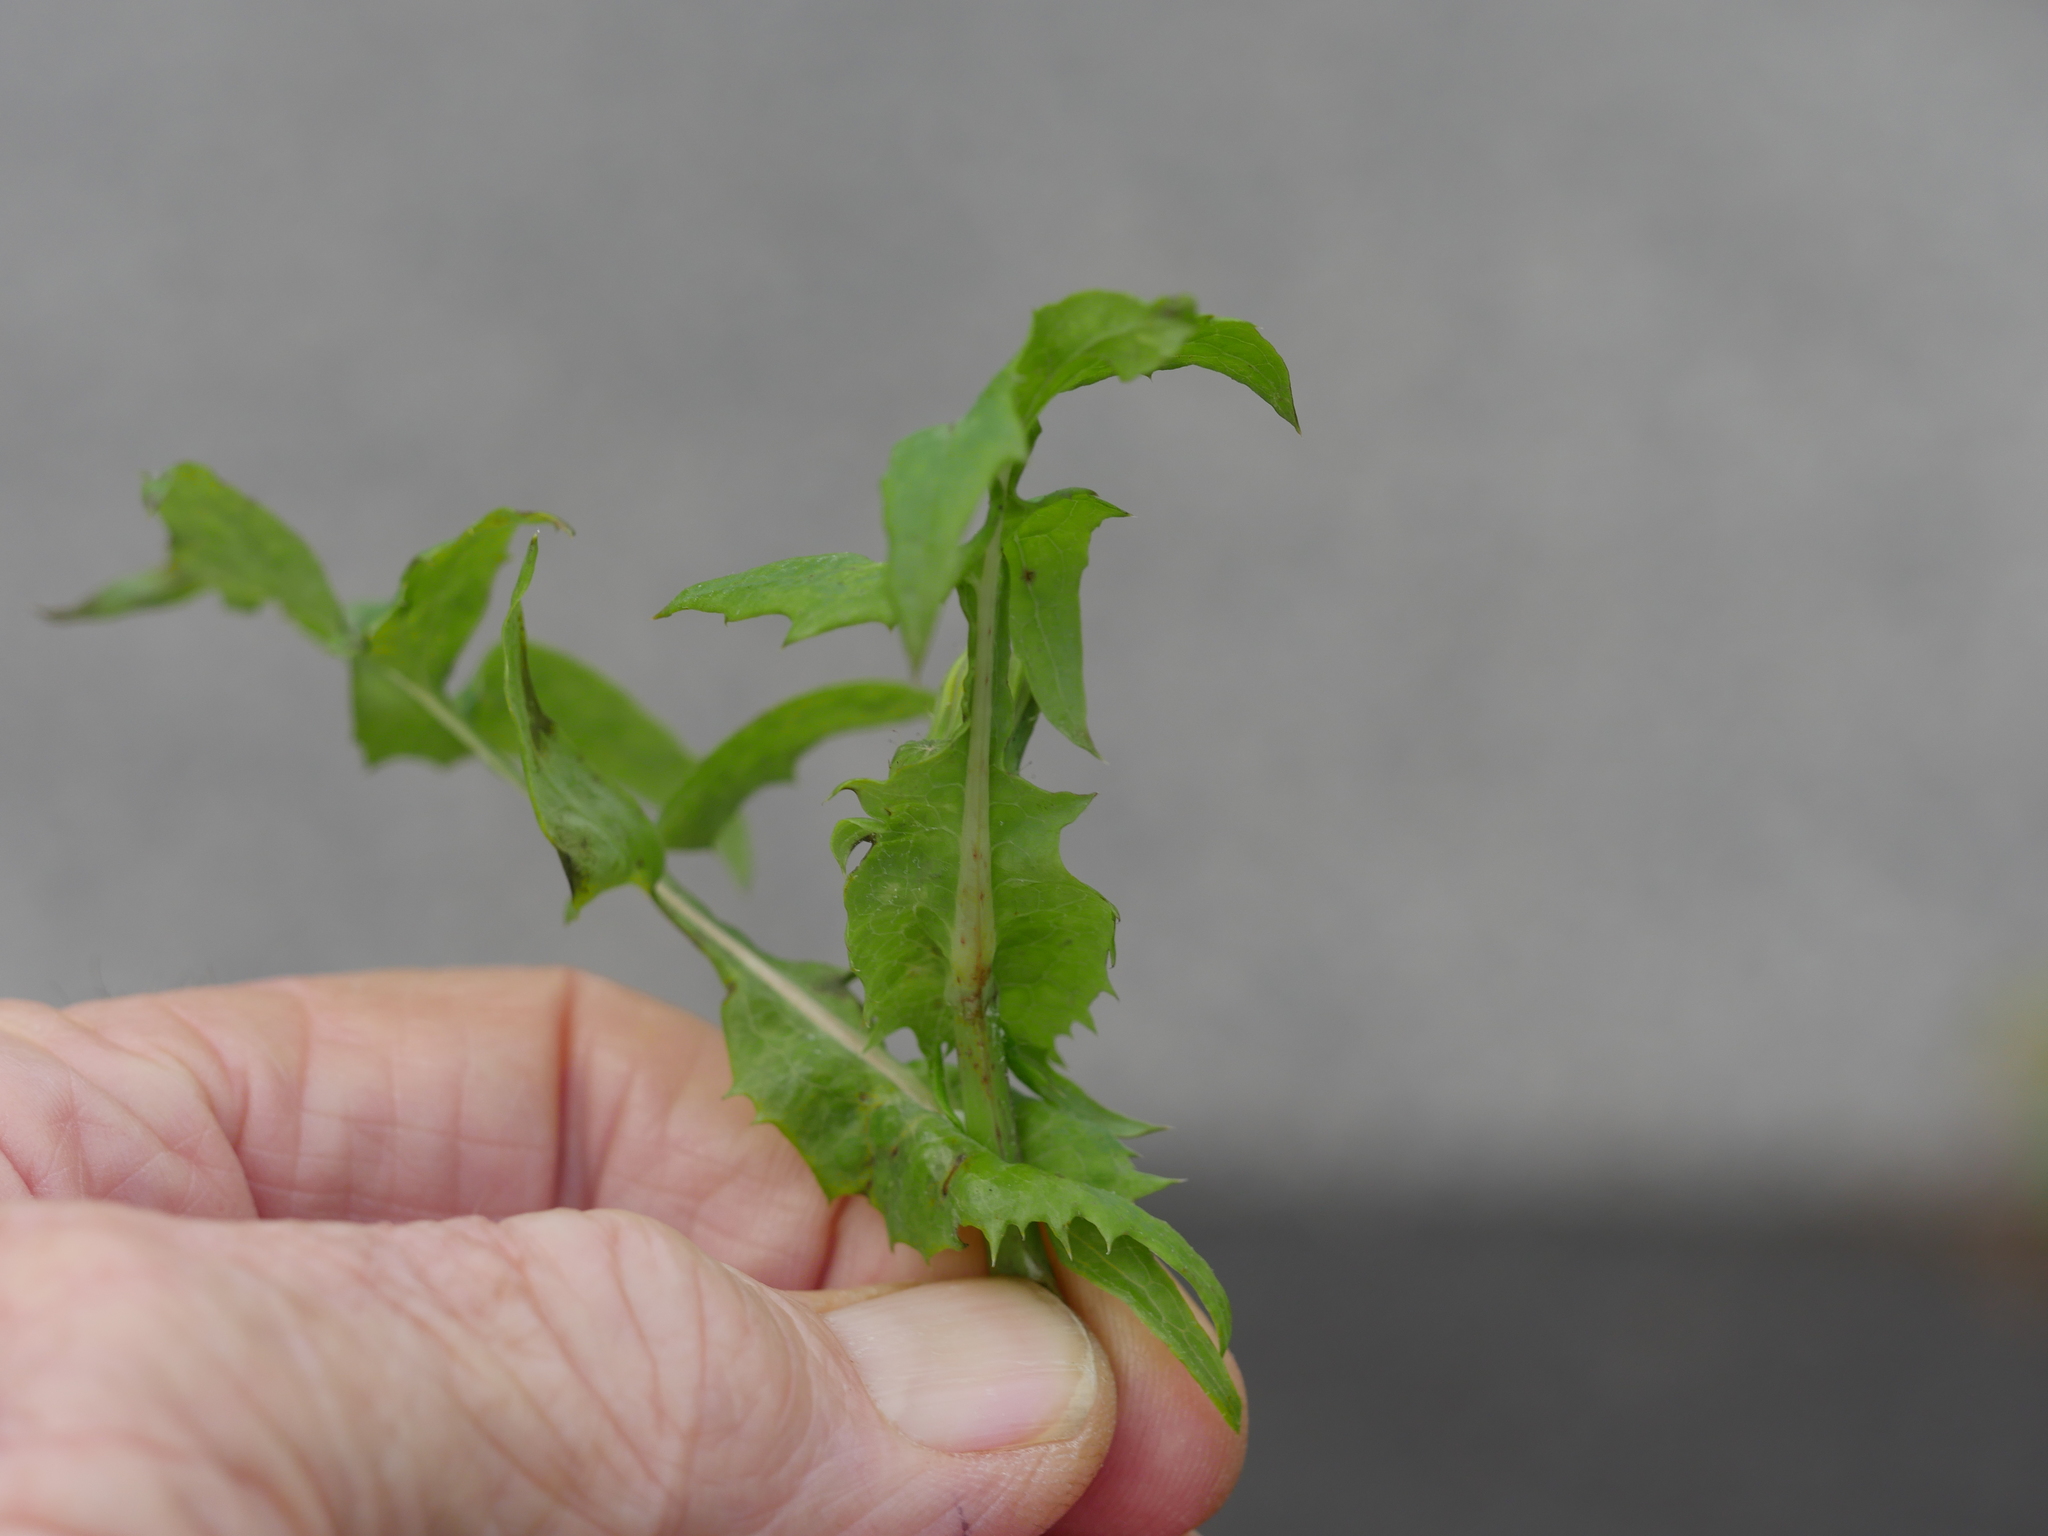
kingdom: Plantae
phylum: Tracheophyta
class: Magnoliopsida
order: Asterales
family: Asteraceae
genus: Sonchus
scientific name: Sonchus oleraceus
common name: Common sowthistle
